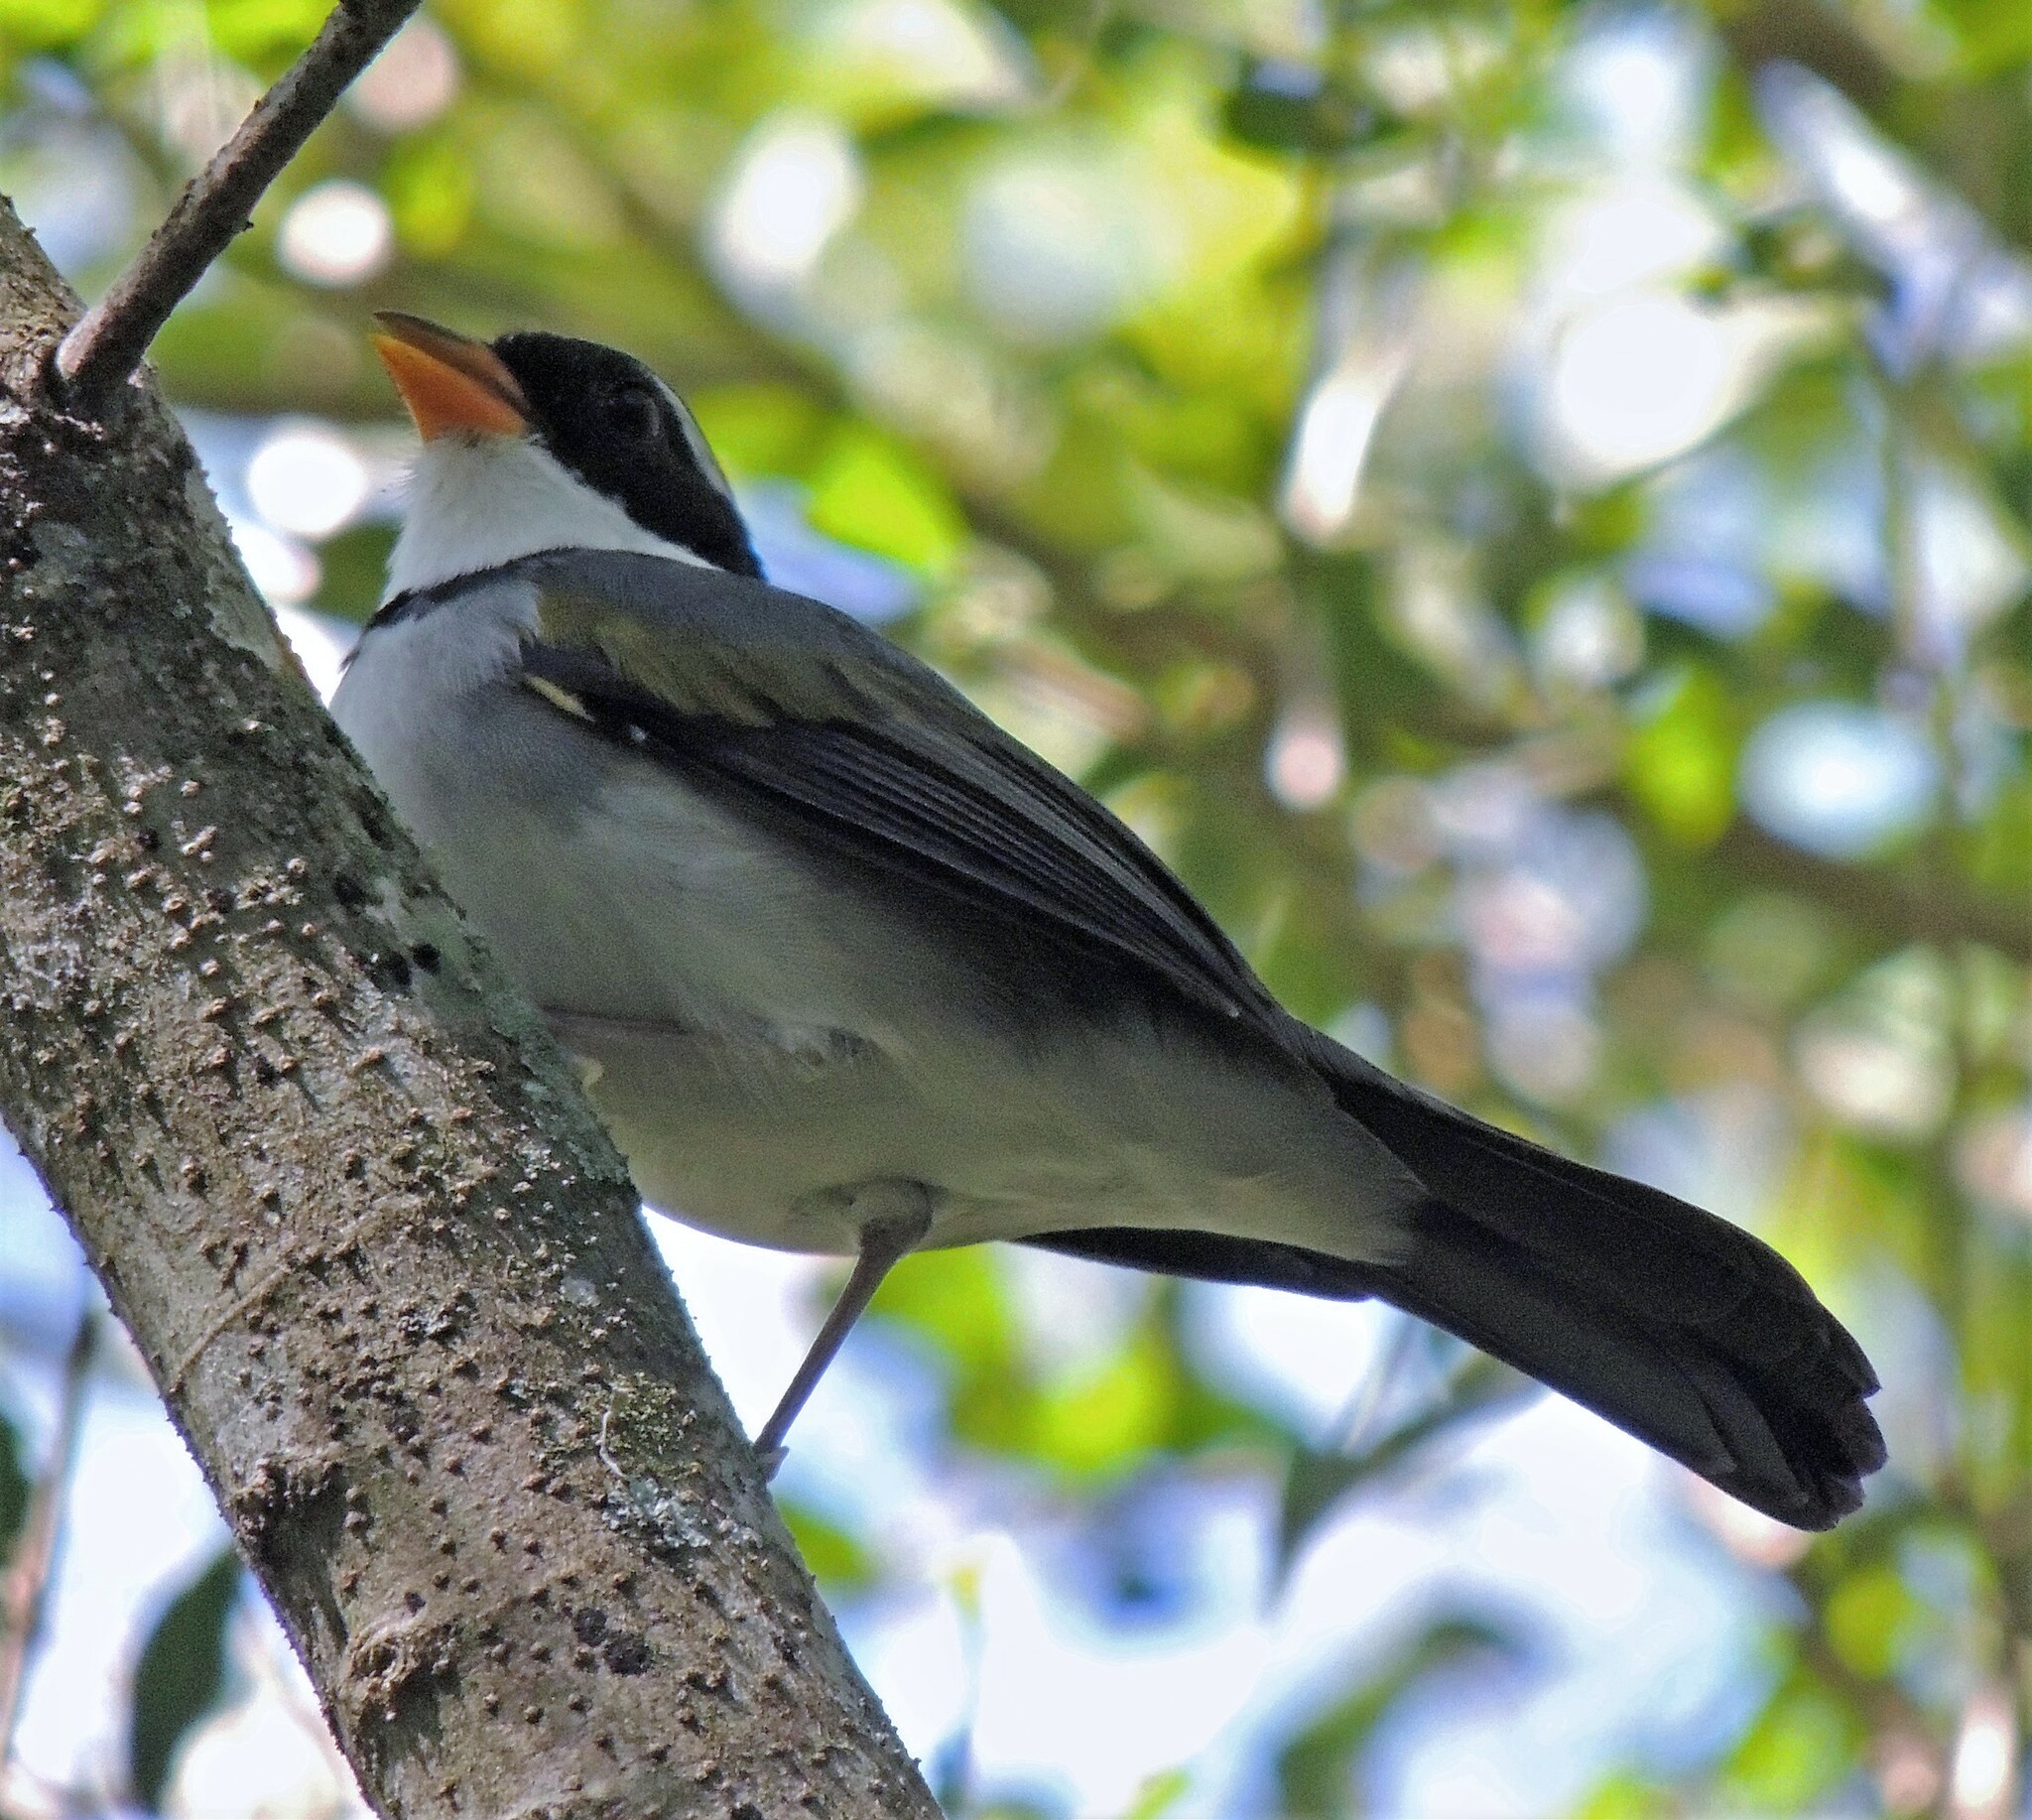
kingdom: Animalia
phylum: Chordata
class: Aves
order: Passeriformes
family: Passerellidae
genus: Arremon
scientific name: Arremon flavirostris
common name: Saffron-billed sparrow
